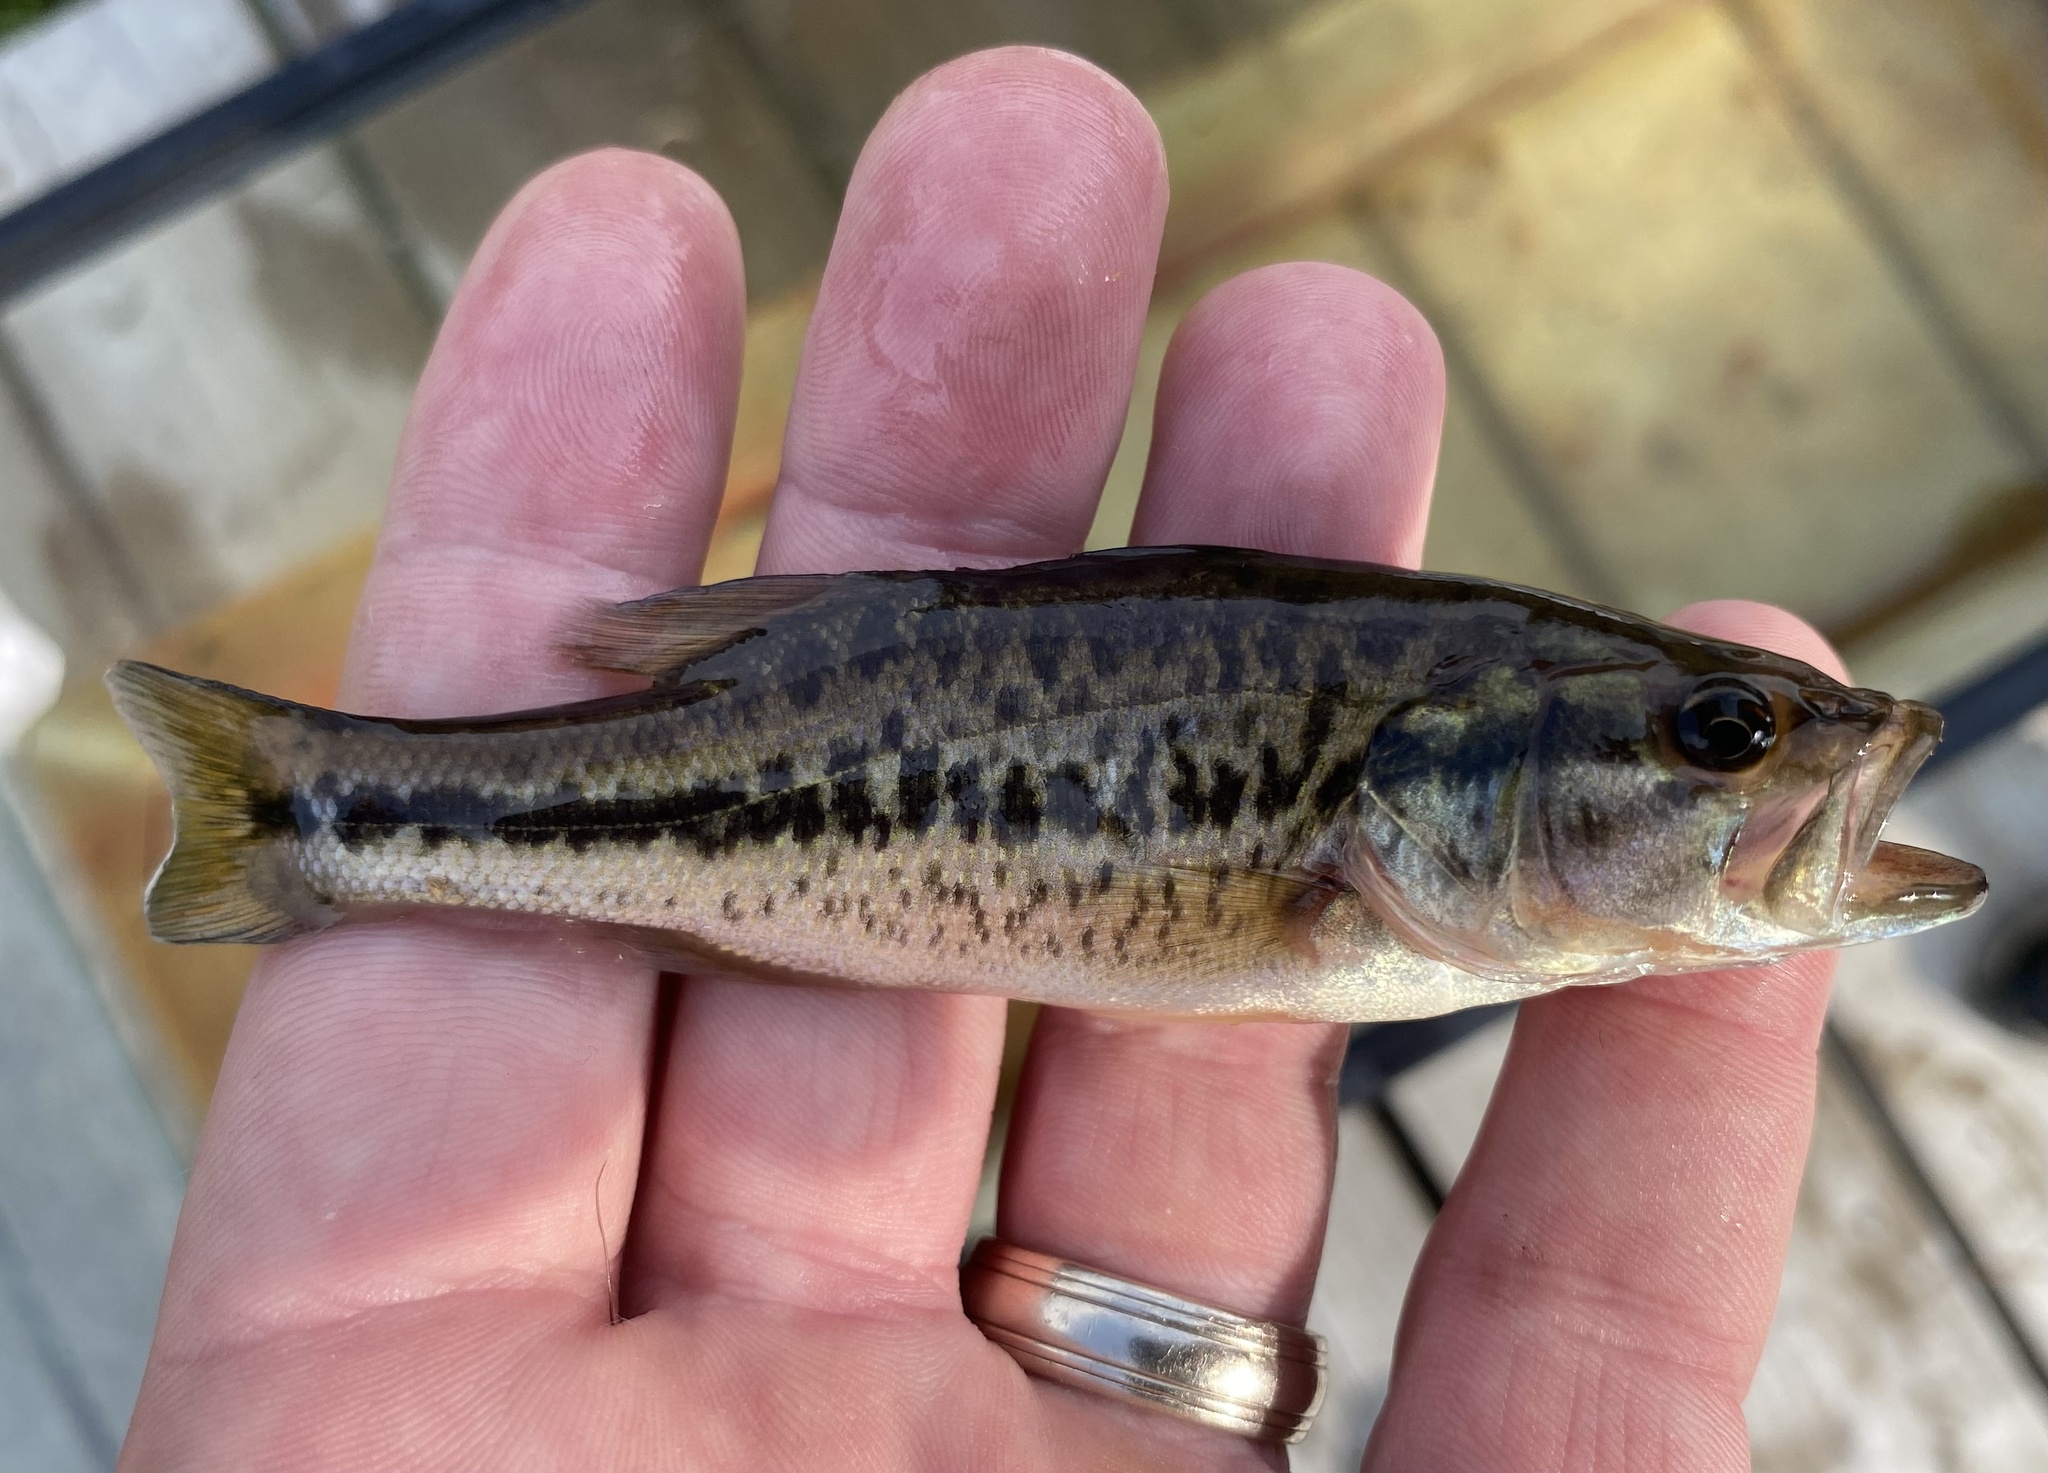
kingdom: Animalia
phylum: Chordata
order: Perciformes
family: Centrarchidae
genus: Micropterus
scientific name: Micropterus
